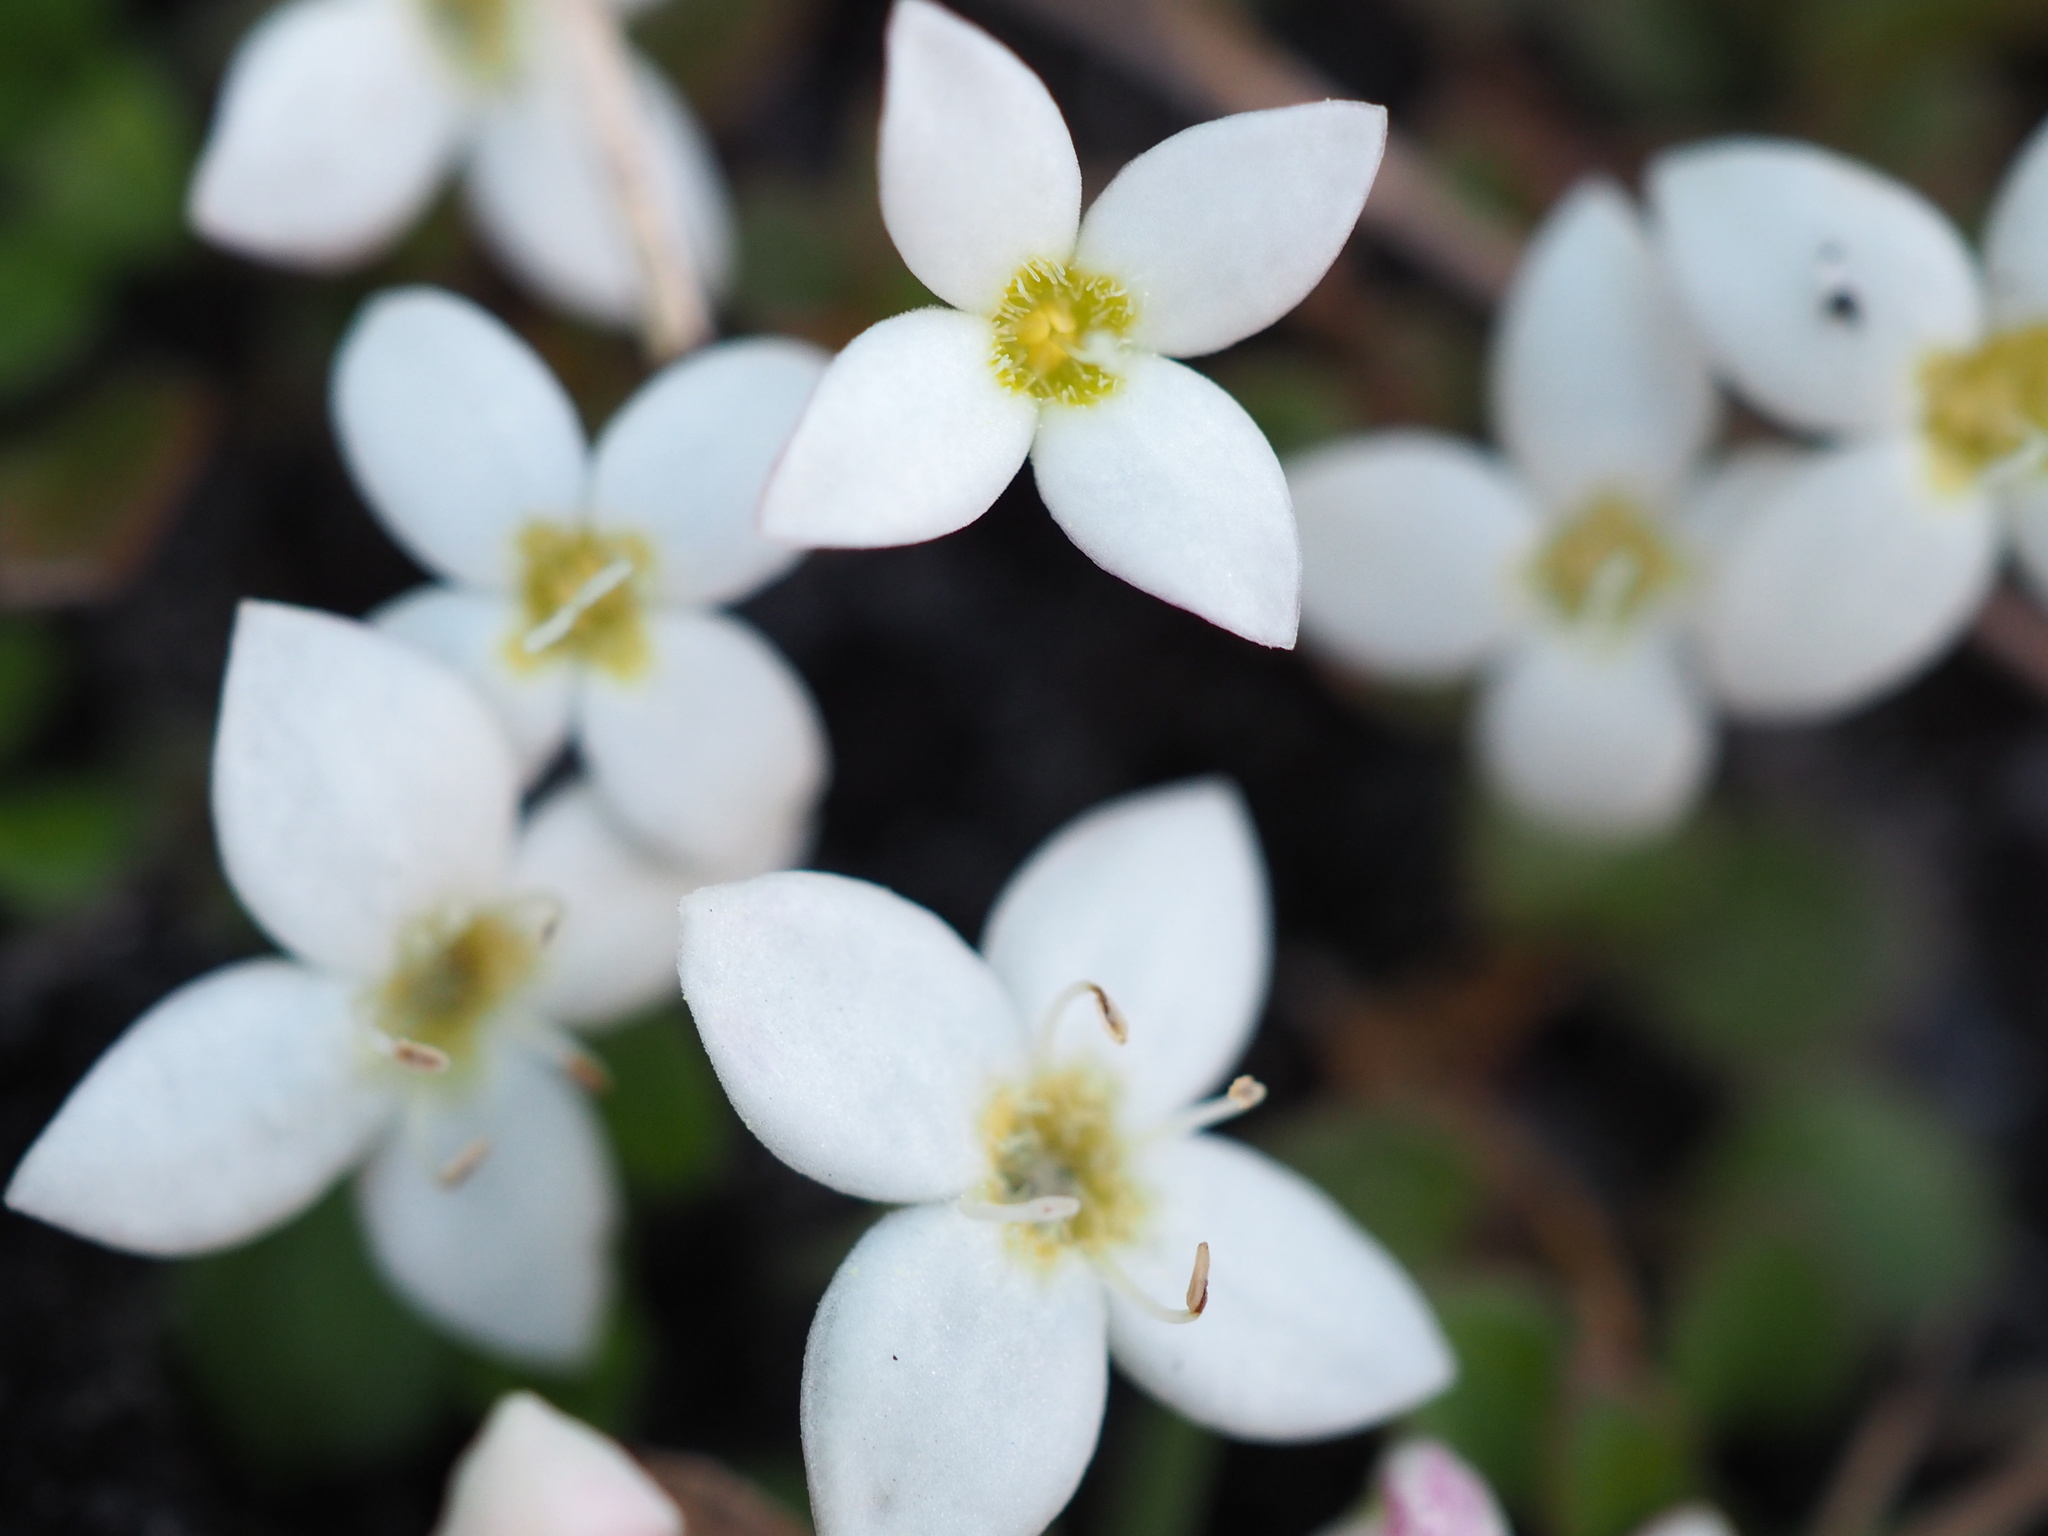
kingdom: Plantae
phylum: Tracheophyta
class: Magnoliopsida
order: Gentianales
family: Rubiaceae
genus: Houstonia
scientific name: Houstonia procumbens
